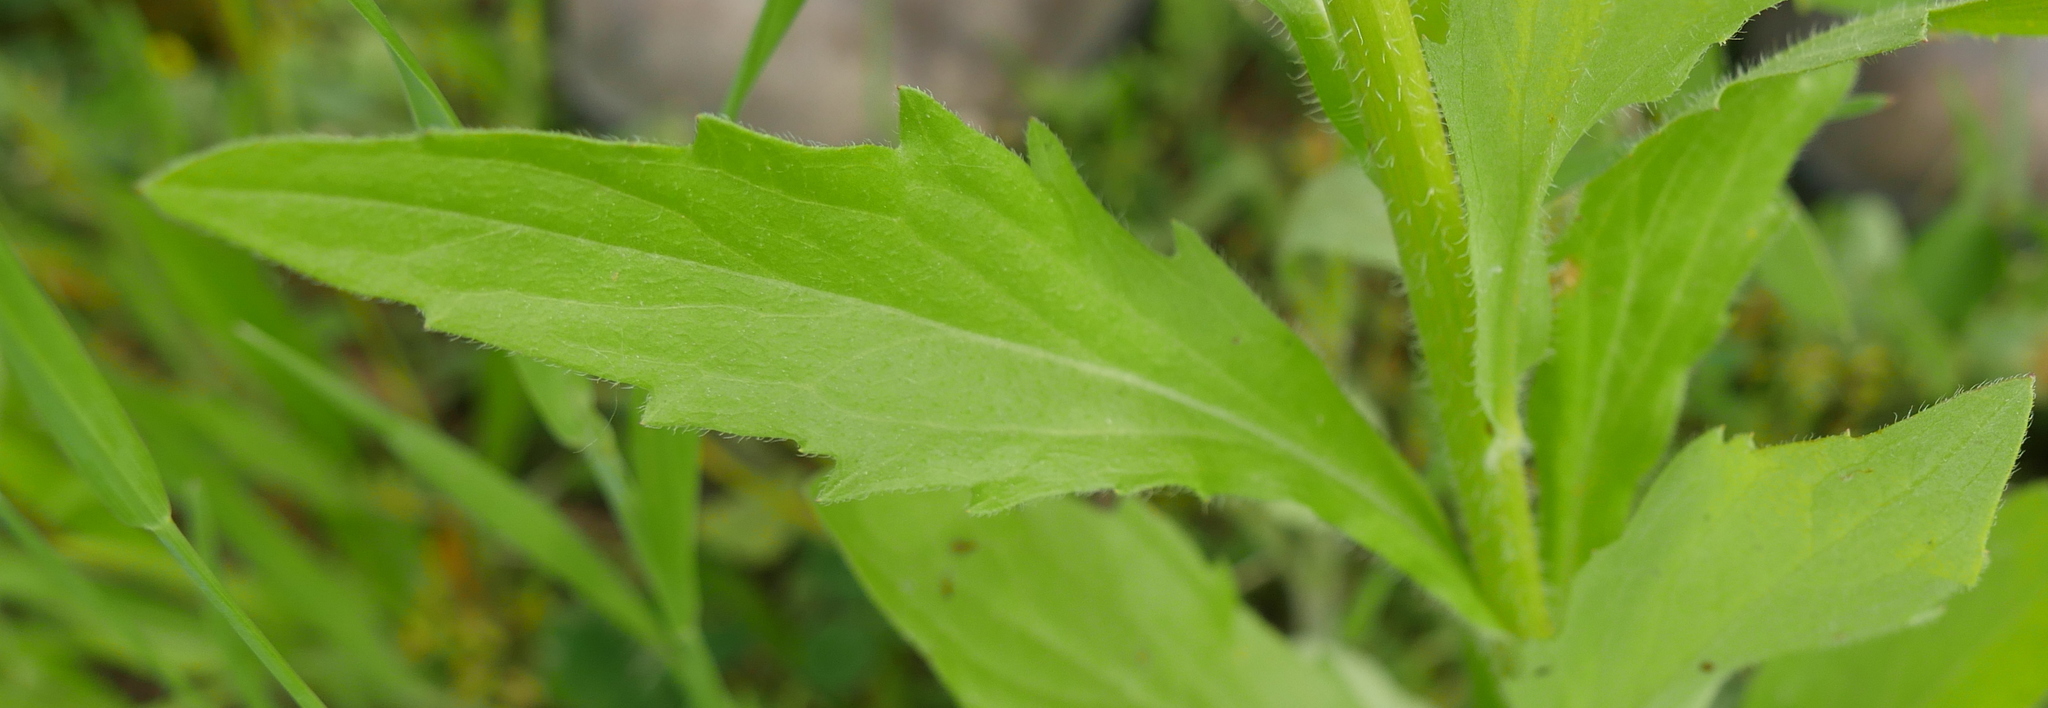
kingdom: Plantae
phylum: Tracheophyta
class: Magnoliopsida
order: Asterales
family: Asteraceae
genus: Erigeron
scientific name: Erigeron annuus
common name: Tall fleabane
